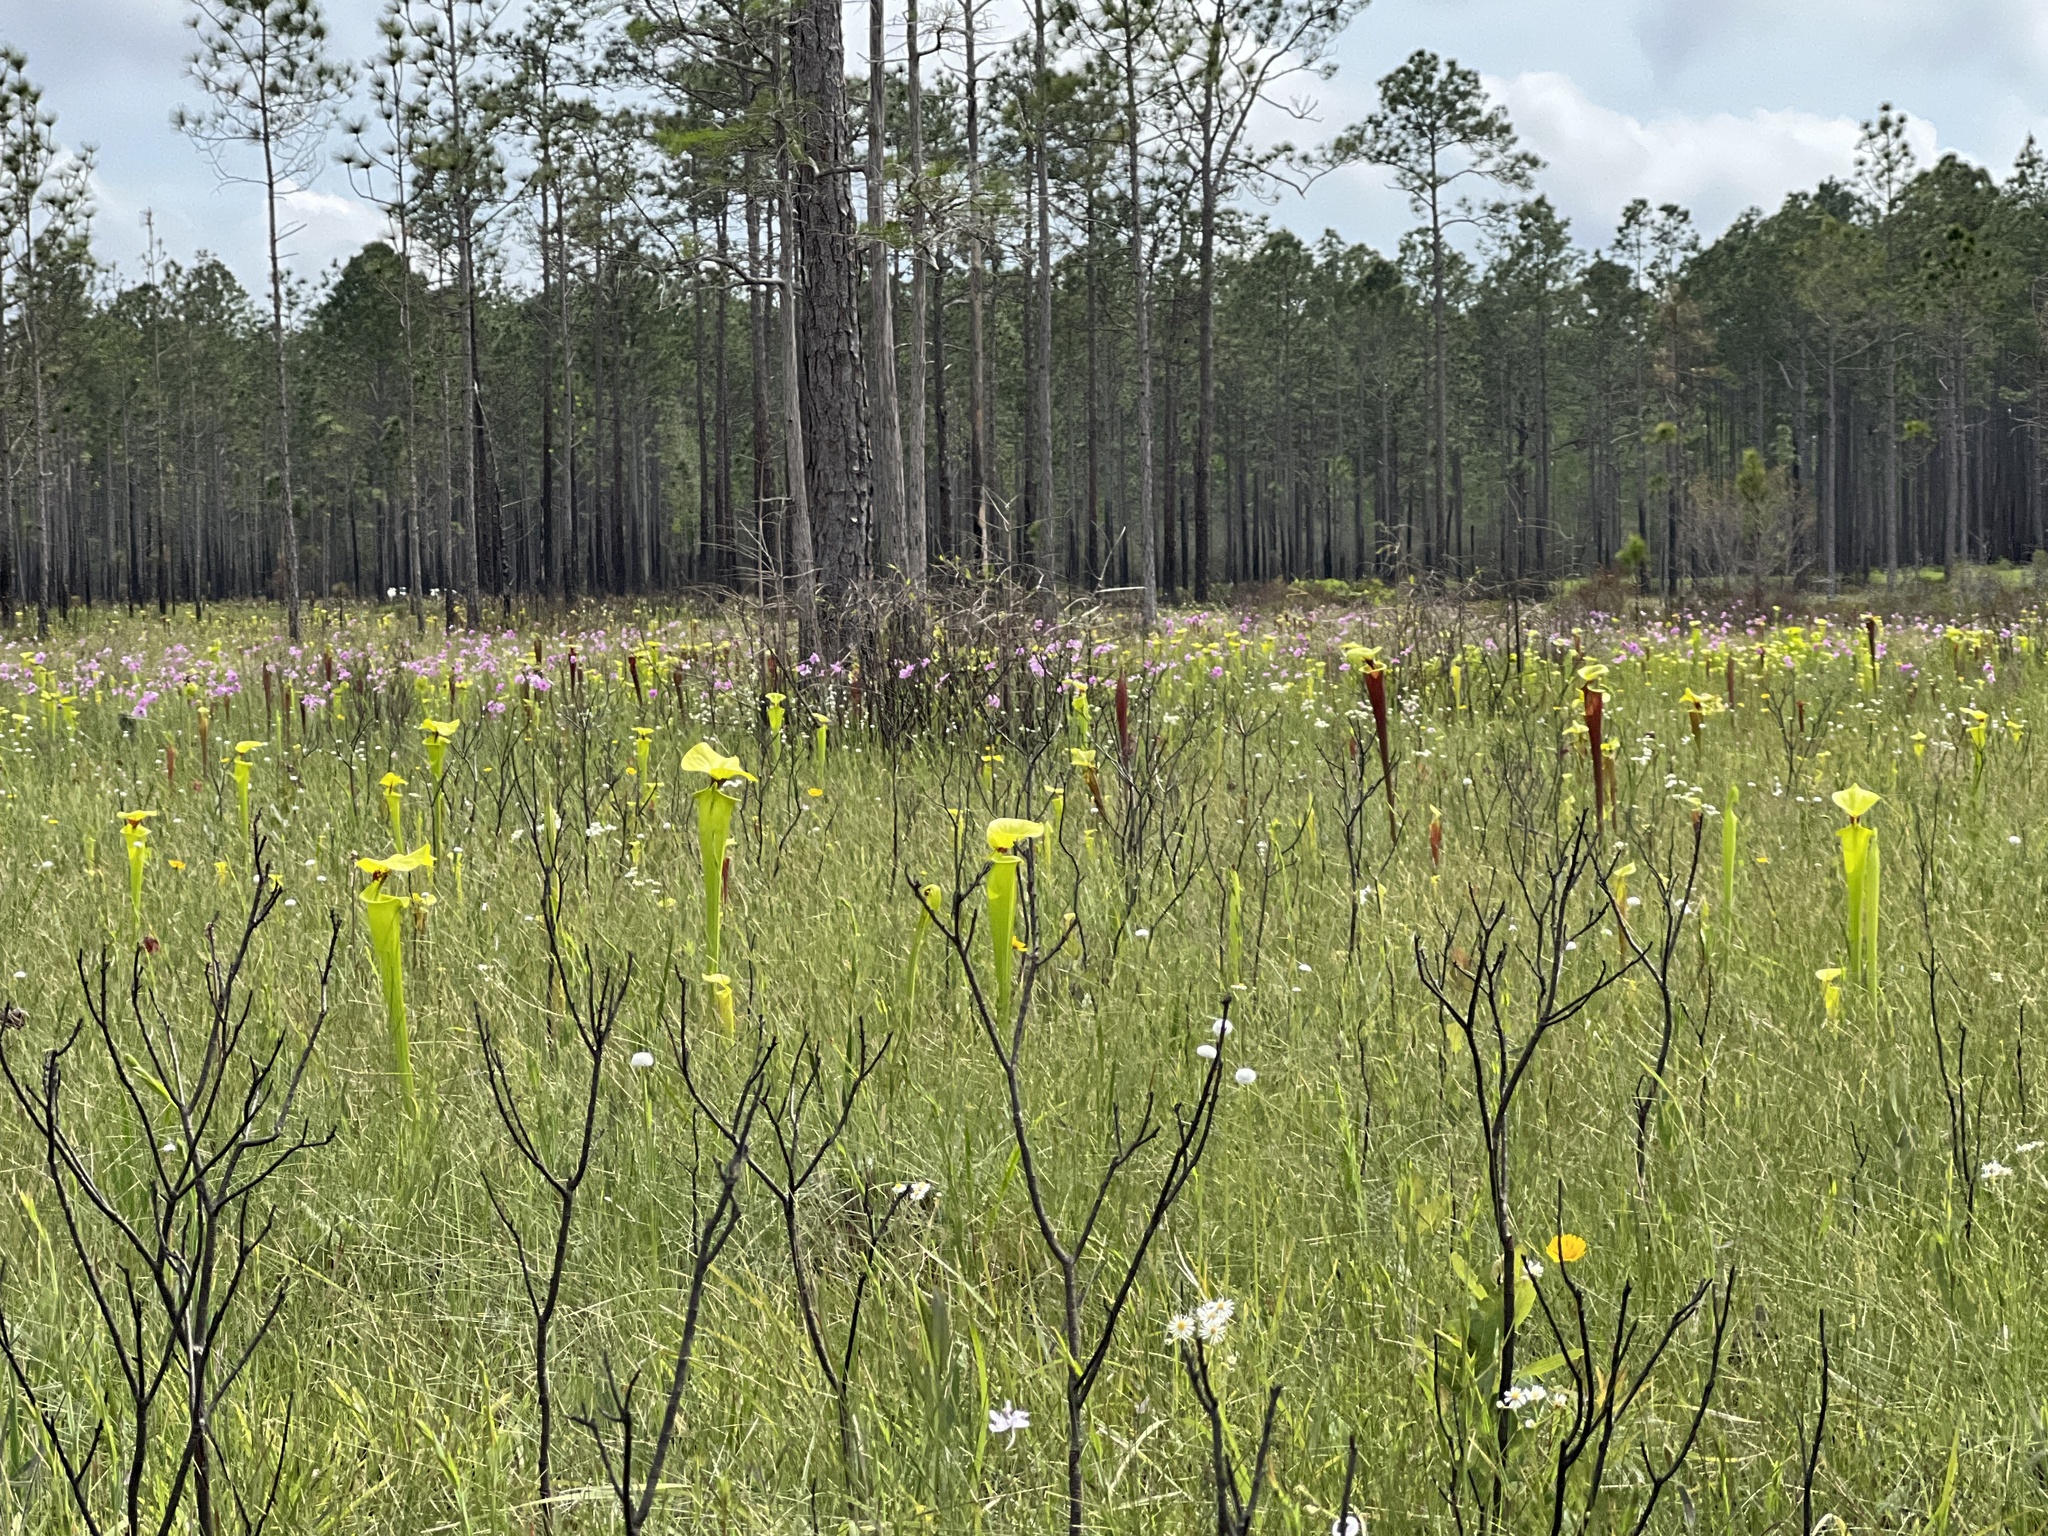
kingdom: Plantae
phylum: Tracheophyta
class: Magnoliopsida
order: Asterales
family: Asteraceae
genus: Coreopsis
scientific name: Coreopsis nudata
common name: Purple tickseed
